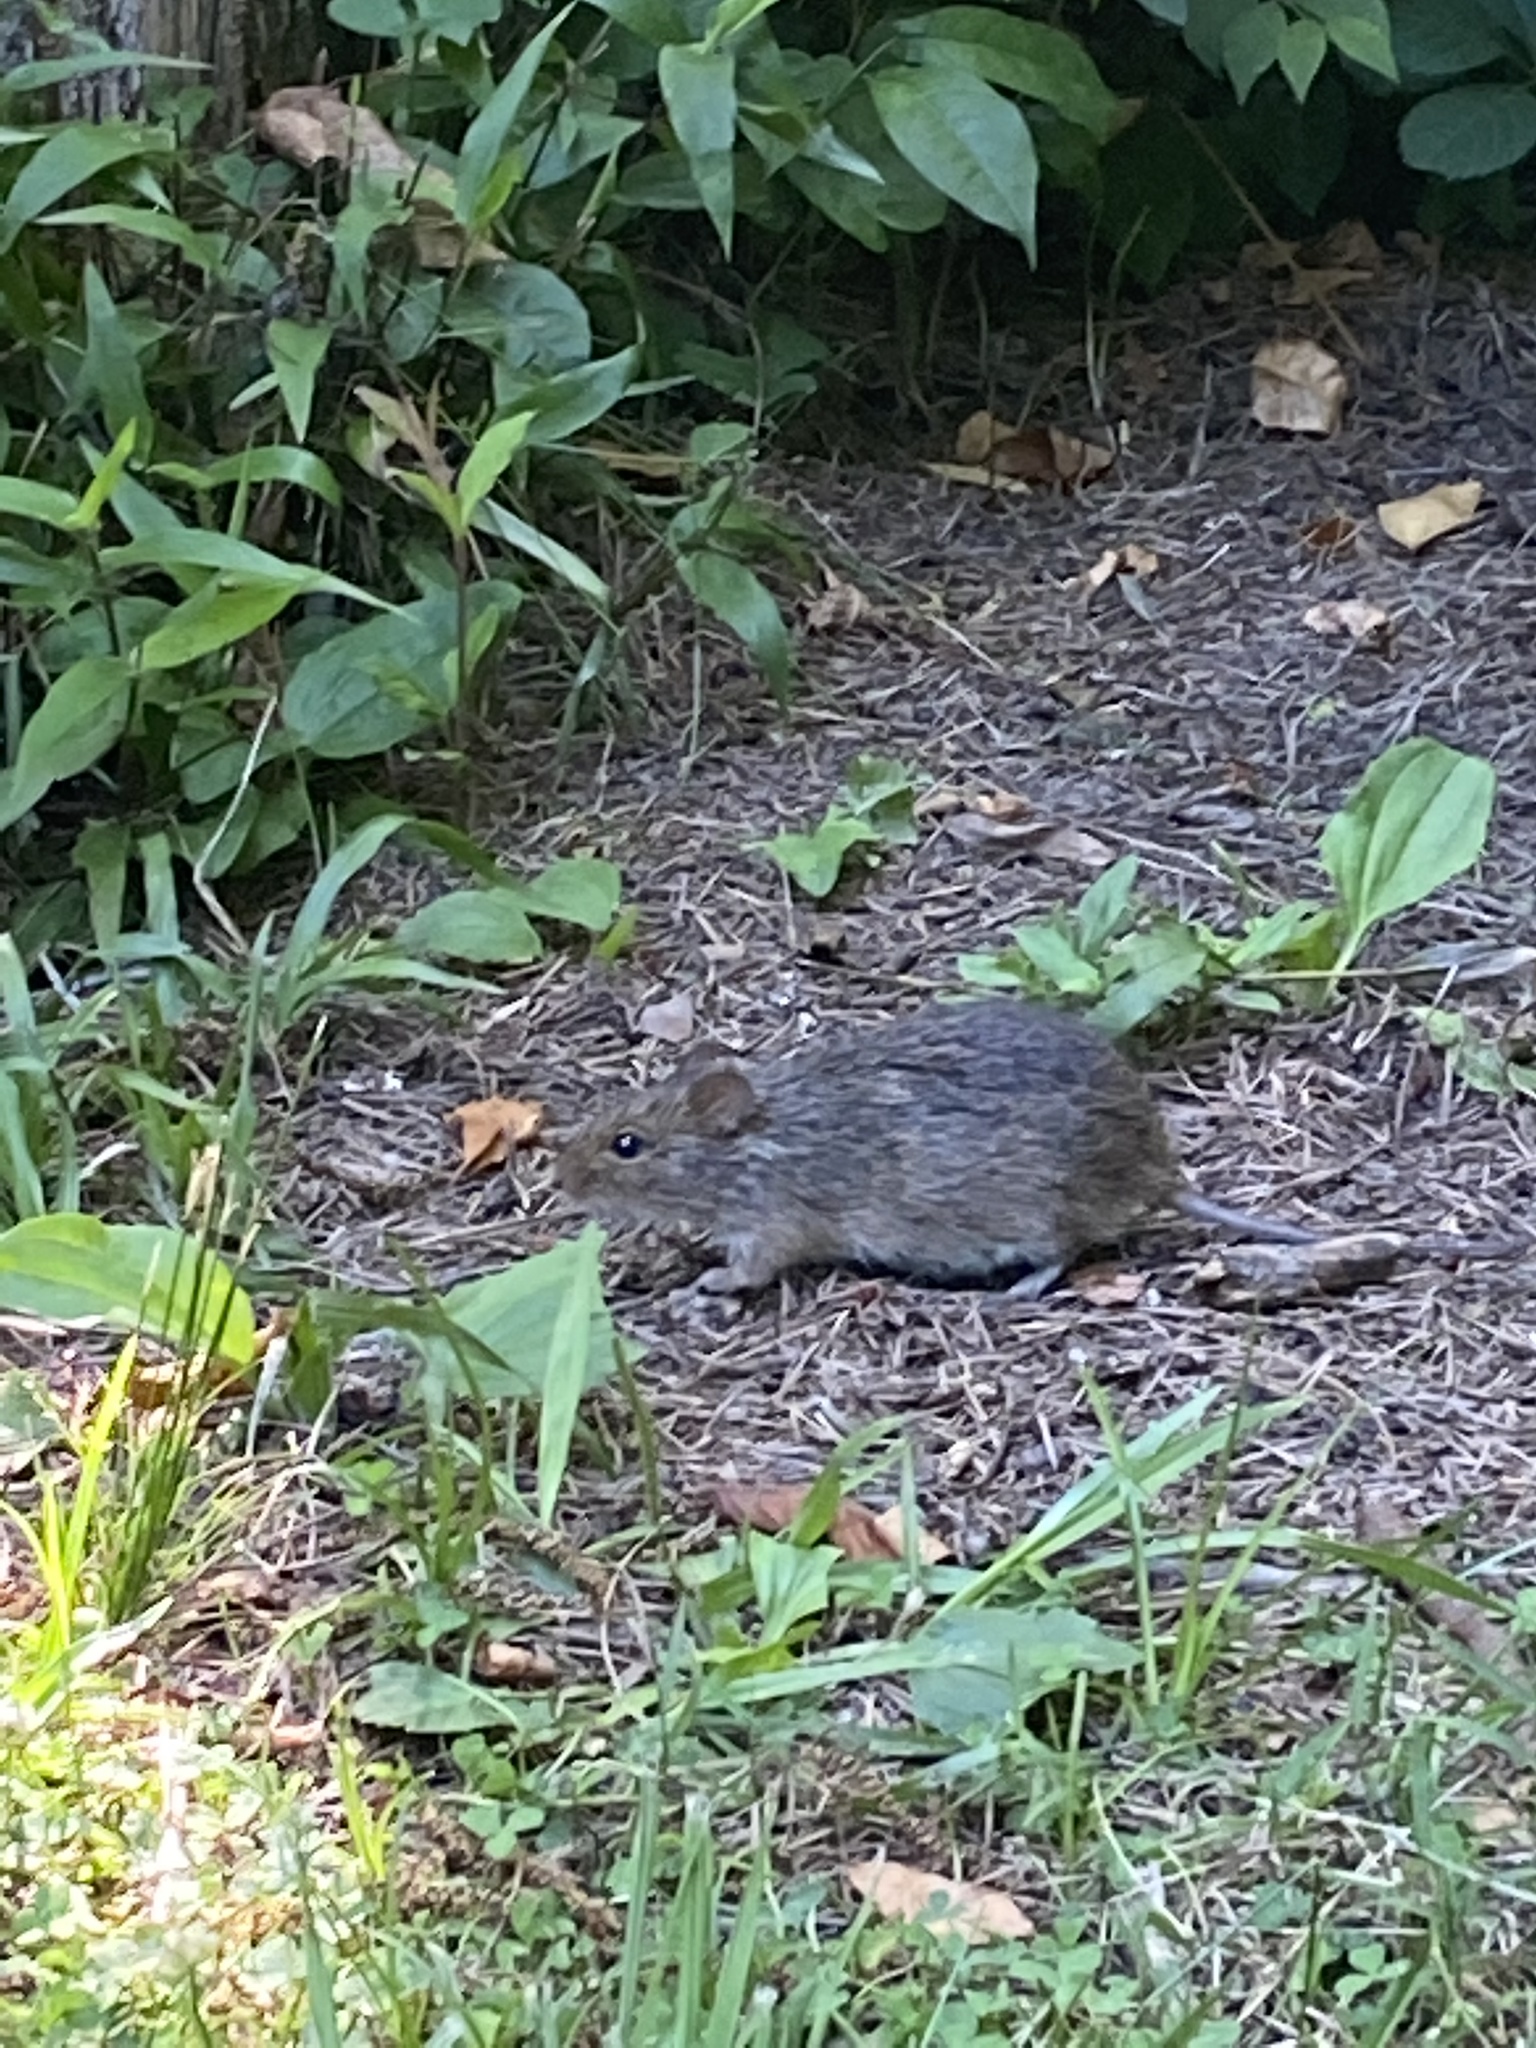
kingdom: Animalia
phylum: Chordata
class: Mammalia
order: Rodentia
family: Cricetidae
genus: Sigmodon
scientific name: Sigmodon hispidus
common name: Hispid cotton rat
